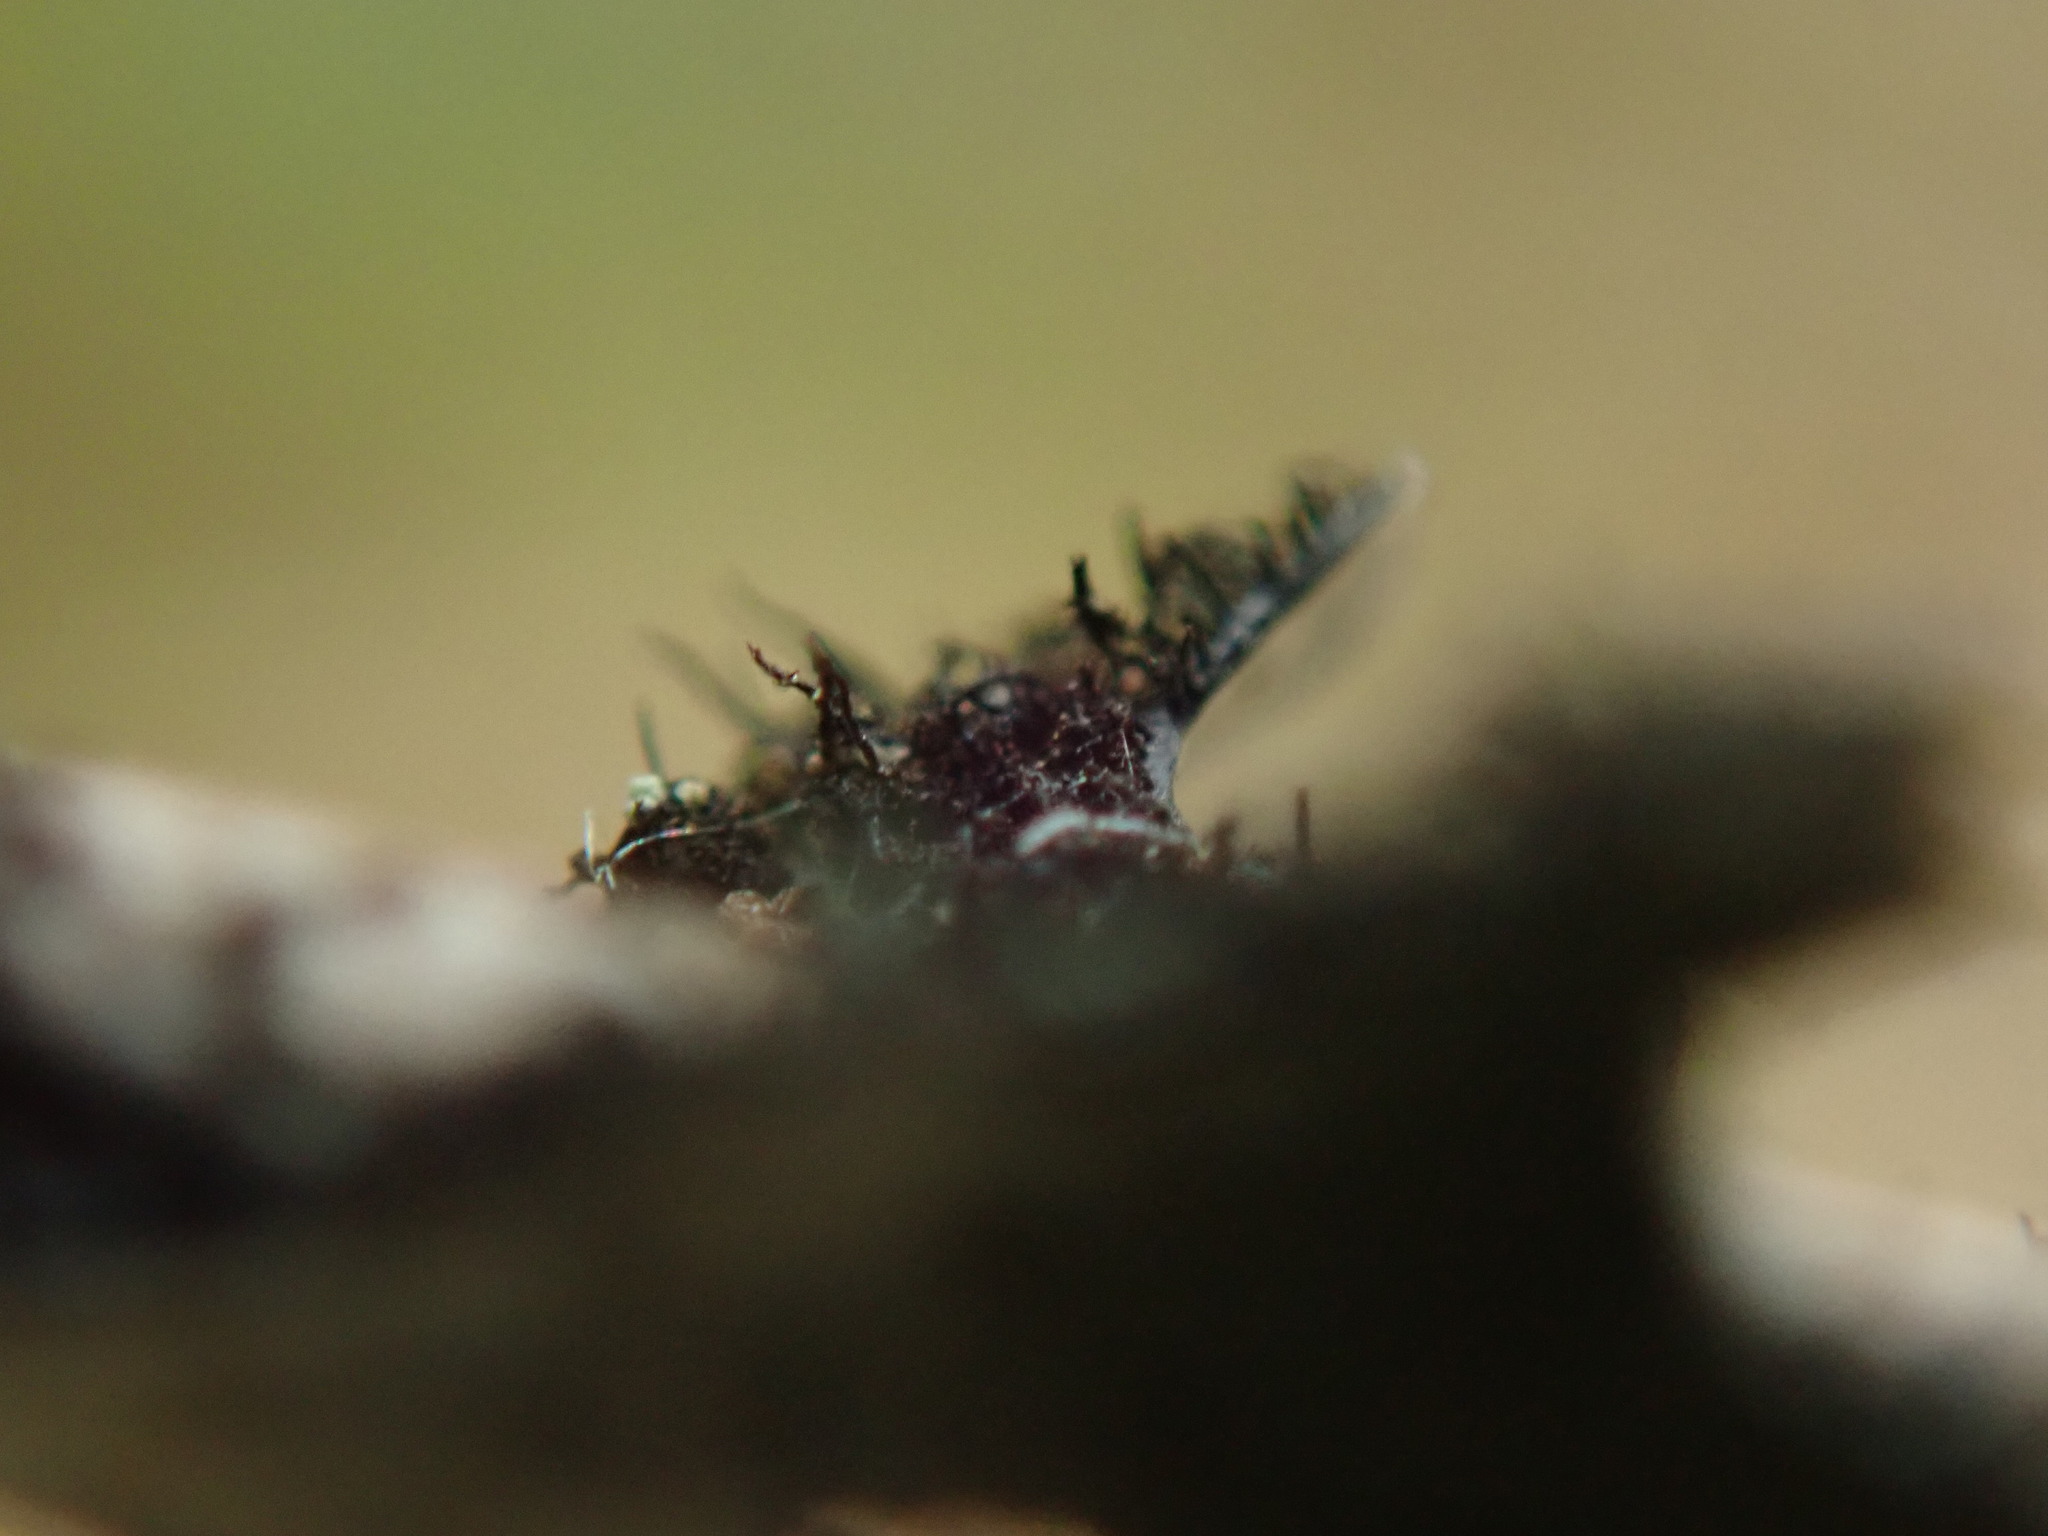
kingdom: Fungi
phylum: Ascomycota
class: Lecanoromycetes
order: Lecanorales
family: Parmeliaceae
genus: Parmelia
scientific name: Parmelia sulcata
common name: Netted shield lichen
